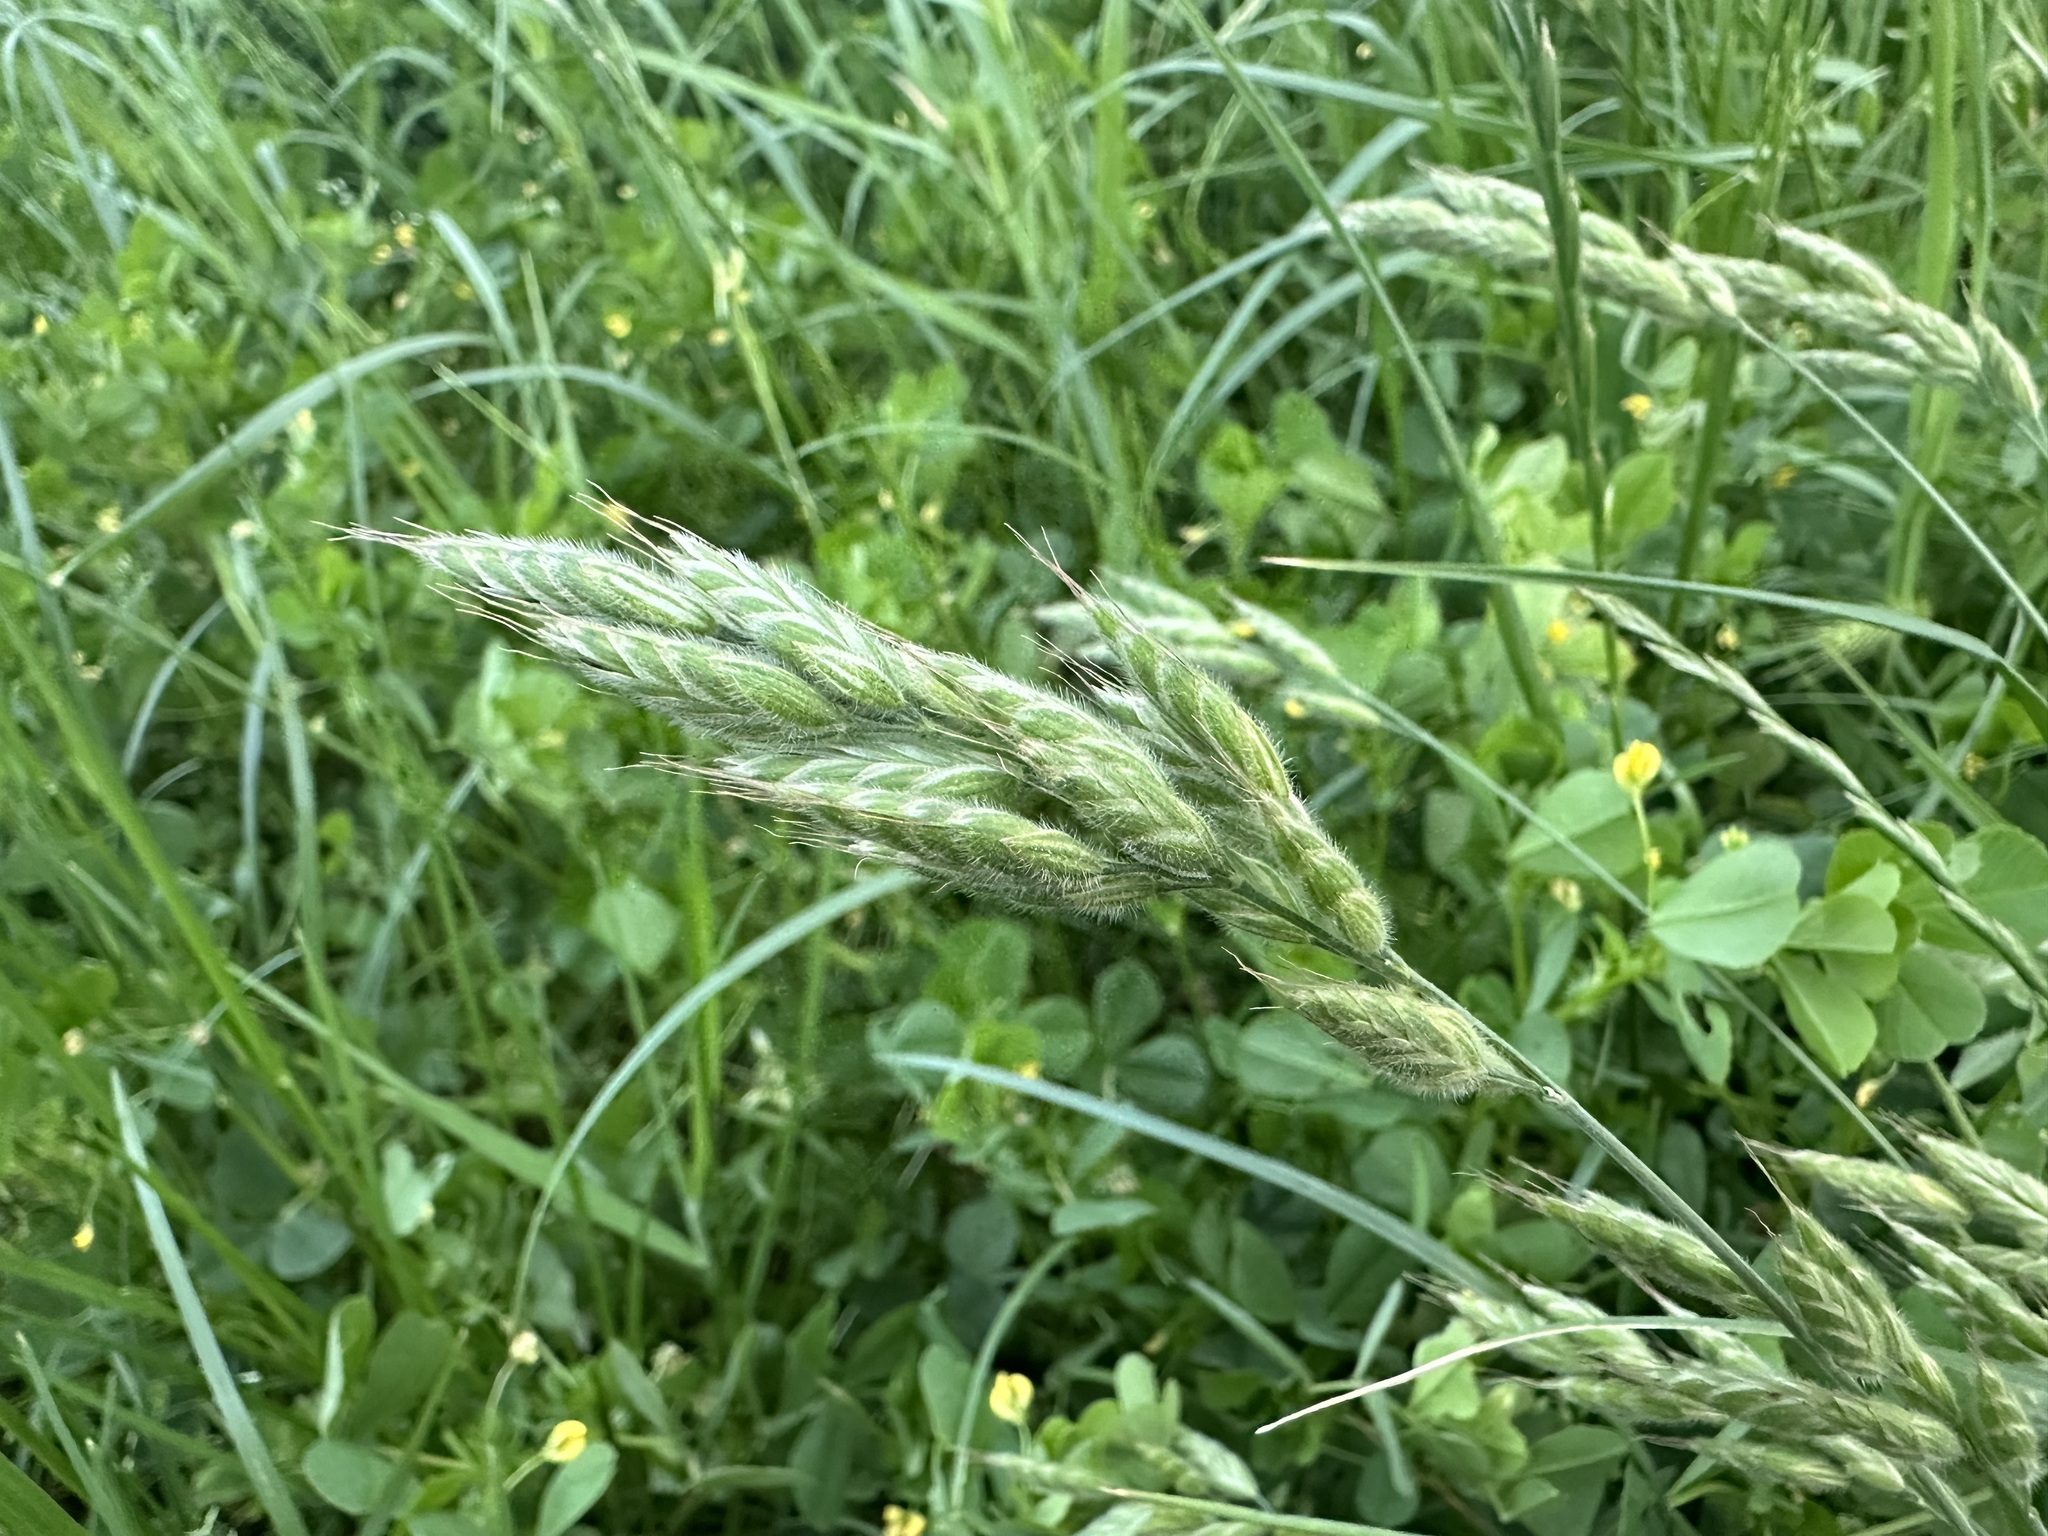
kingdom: Plantae
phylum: Tracheophyta
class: Liliopsida
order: Poales
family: Poaceae
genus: Bromus
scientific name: Bromus hordeaceus
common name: Soft brome
